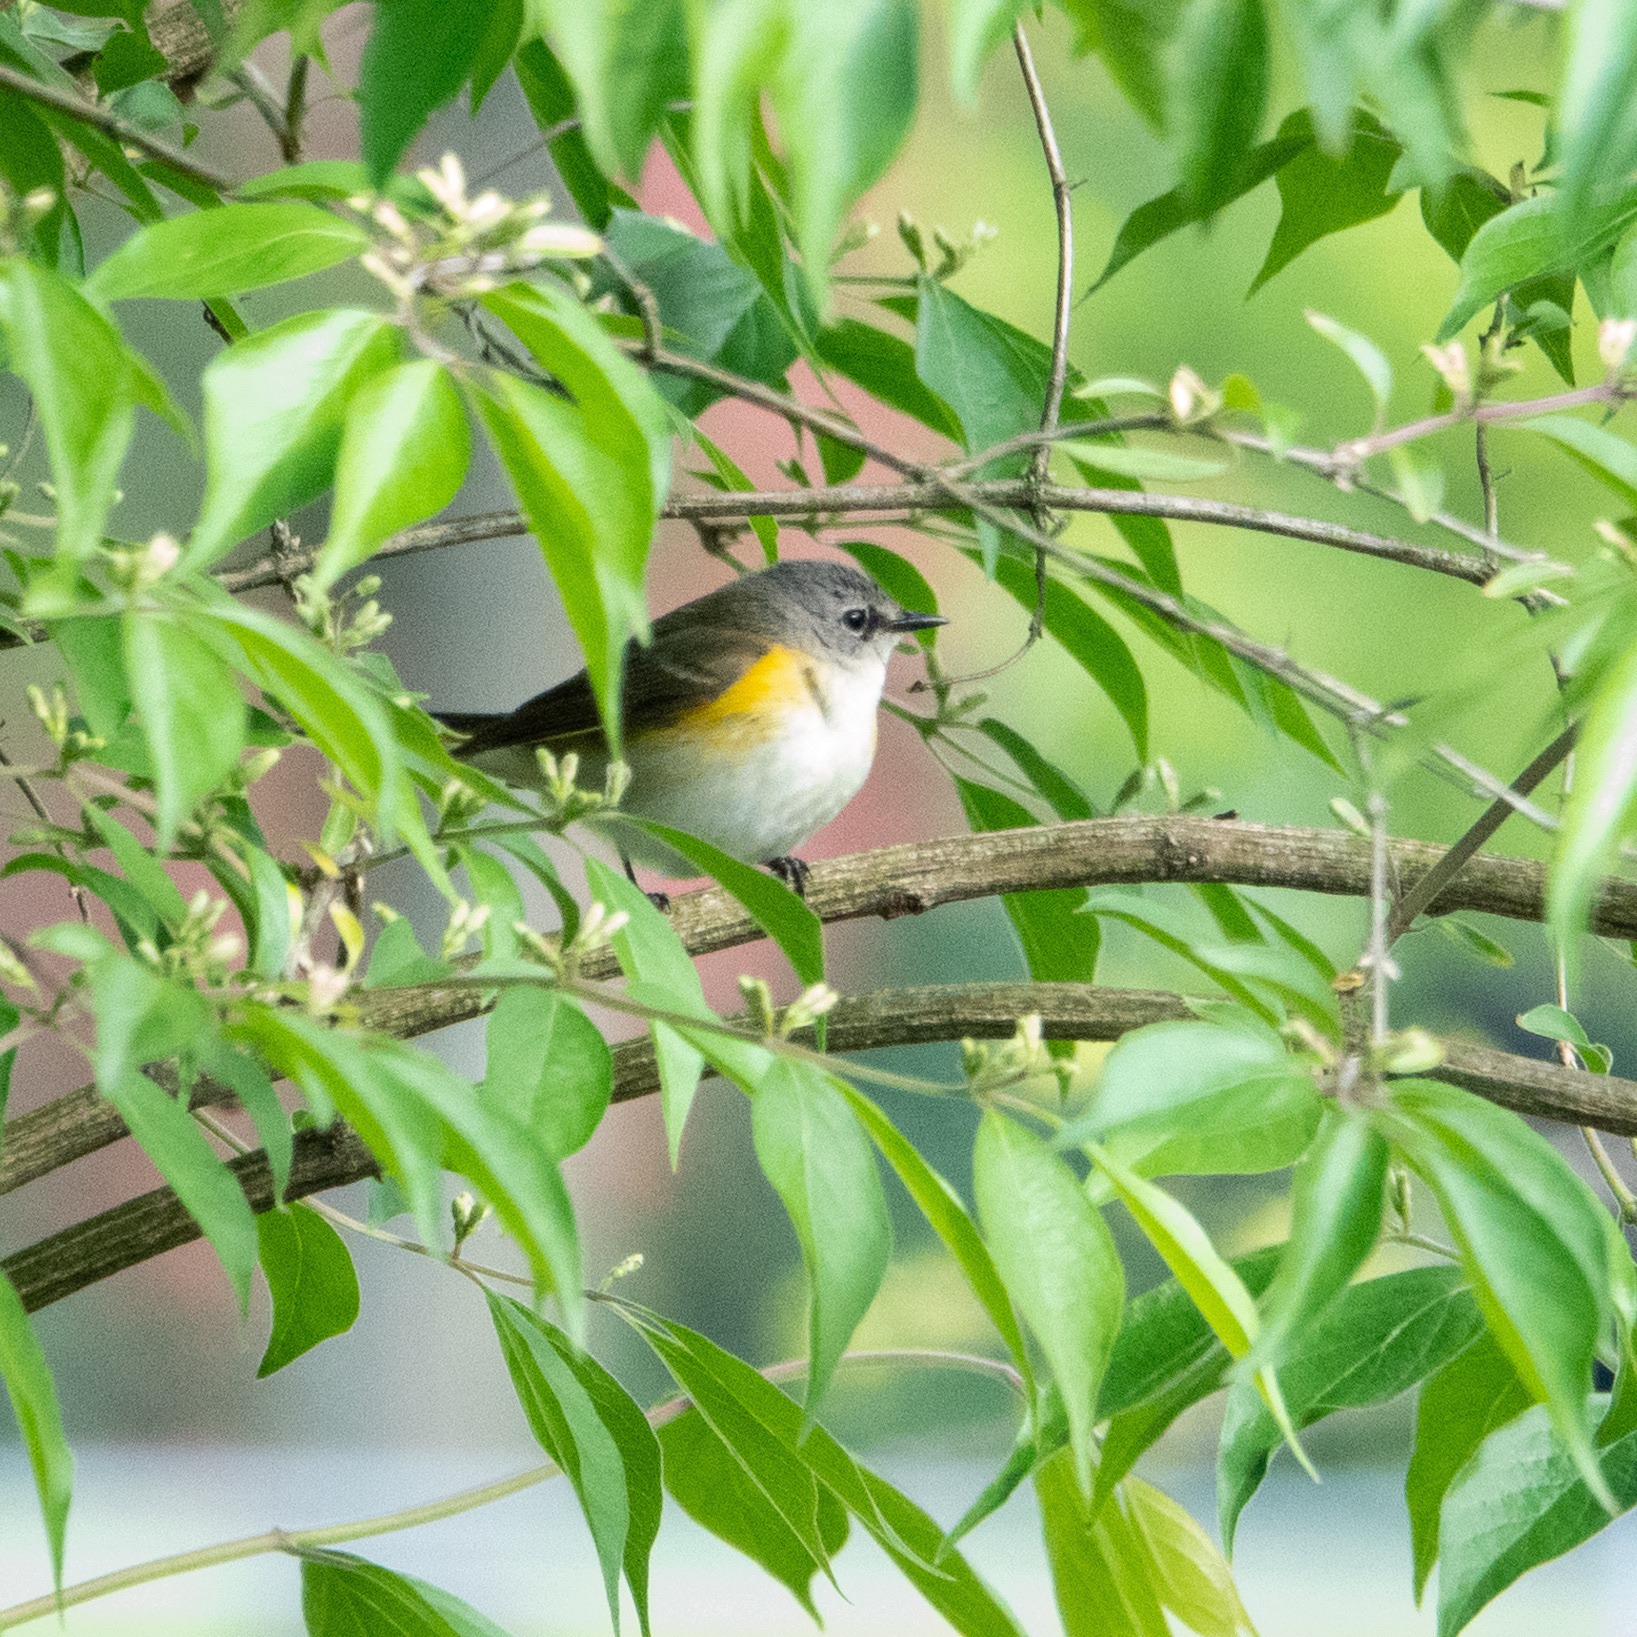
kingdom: Animalia
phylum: Chordata
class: Aves
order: Passeriformes
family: Parulidae
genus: Setophaga
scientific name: Setophaga ruticilla
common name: American redstart
